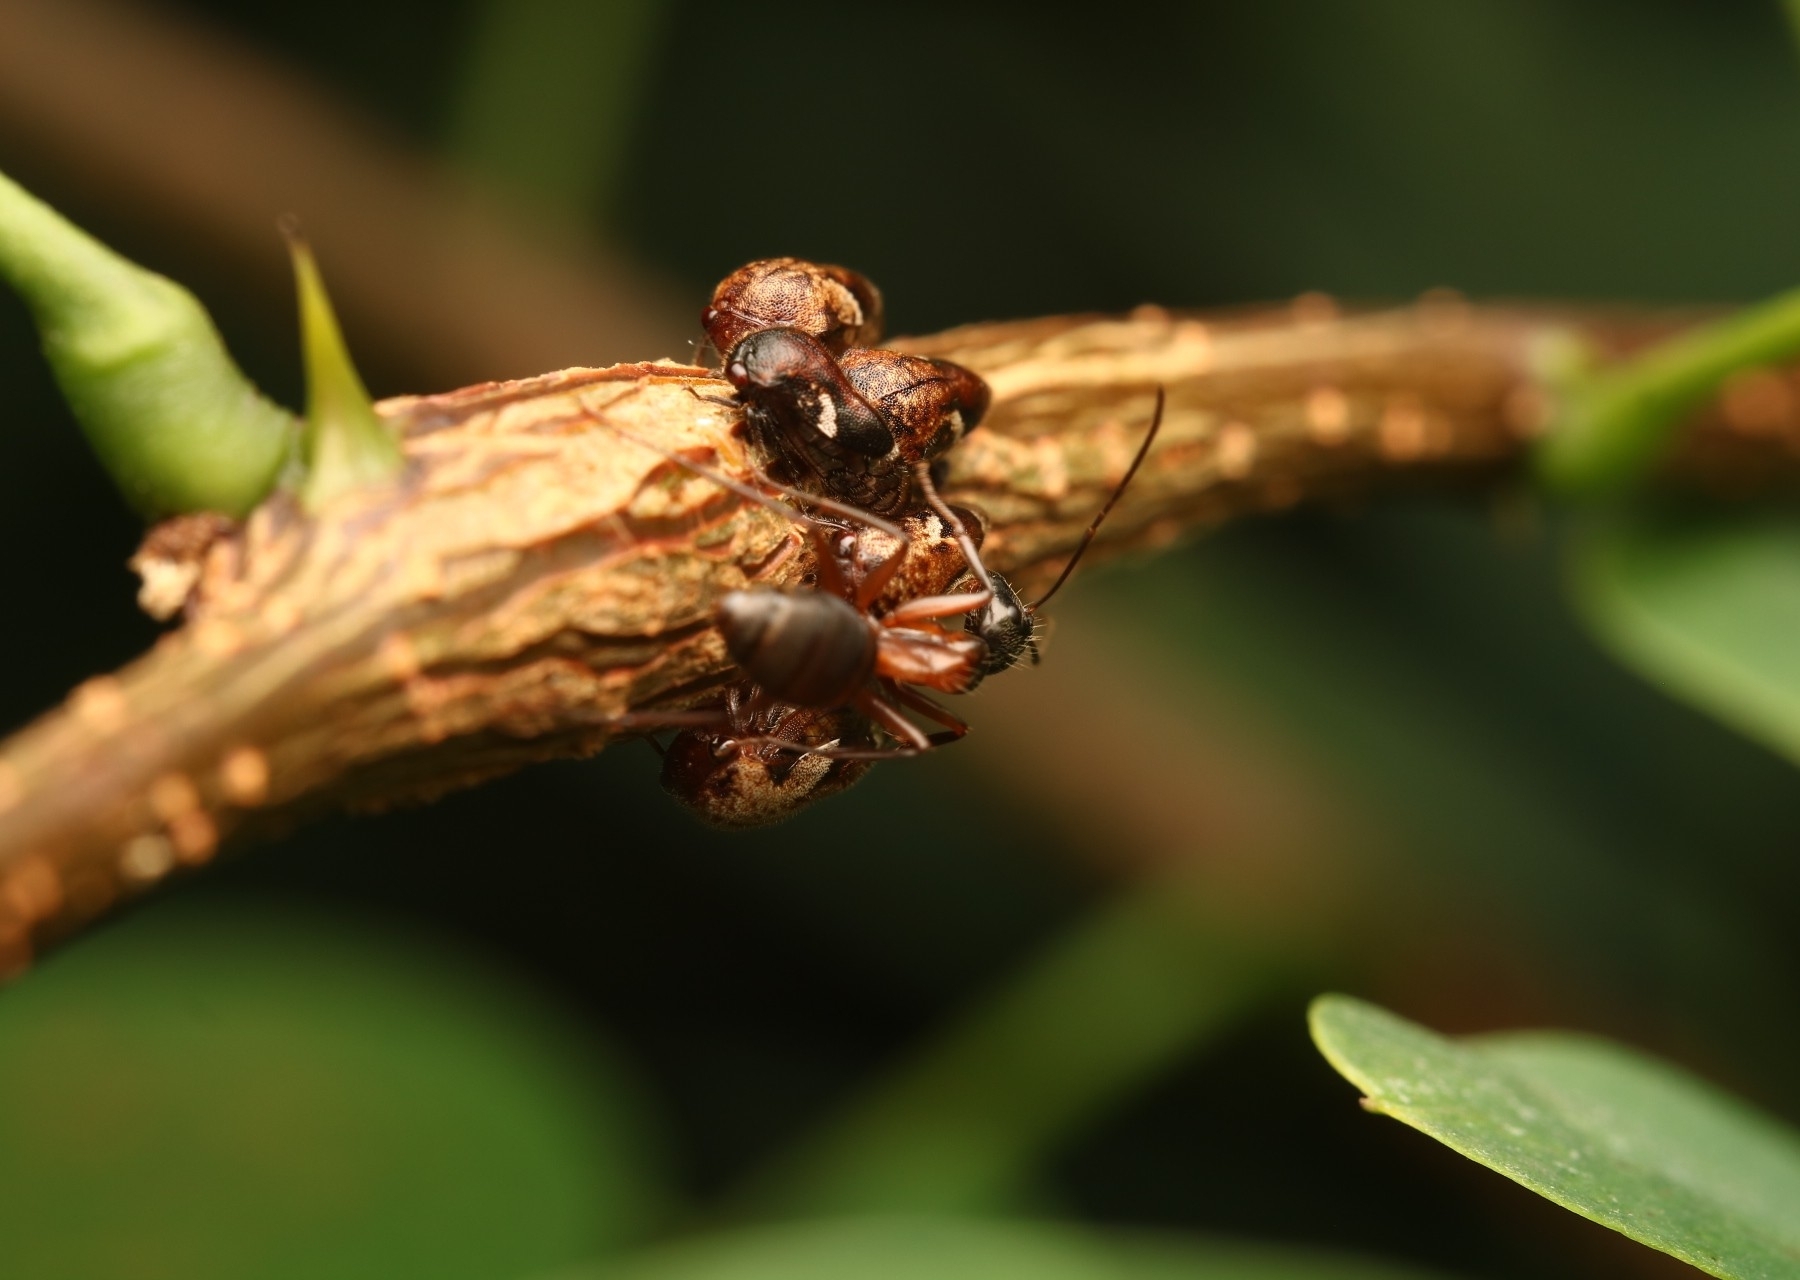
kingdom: Animalia
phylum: Arthropoda
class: Insecta
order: Hymenoptera
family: Formicidae
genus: Camponotus
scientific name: Camponotus chromaiodes
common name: Red carpenter ant
